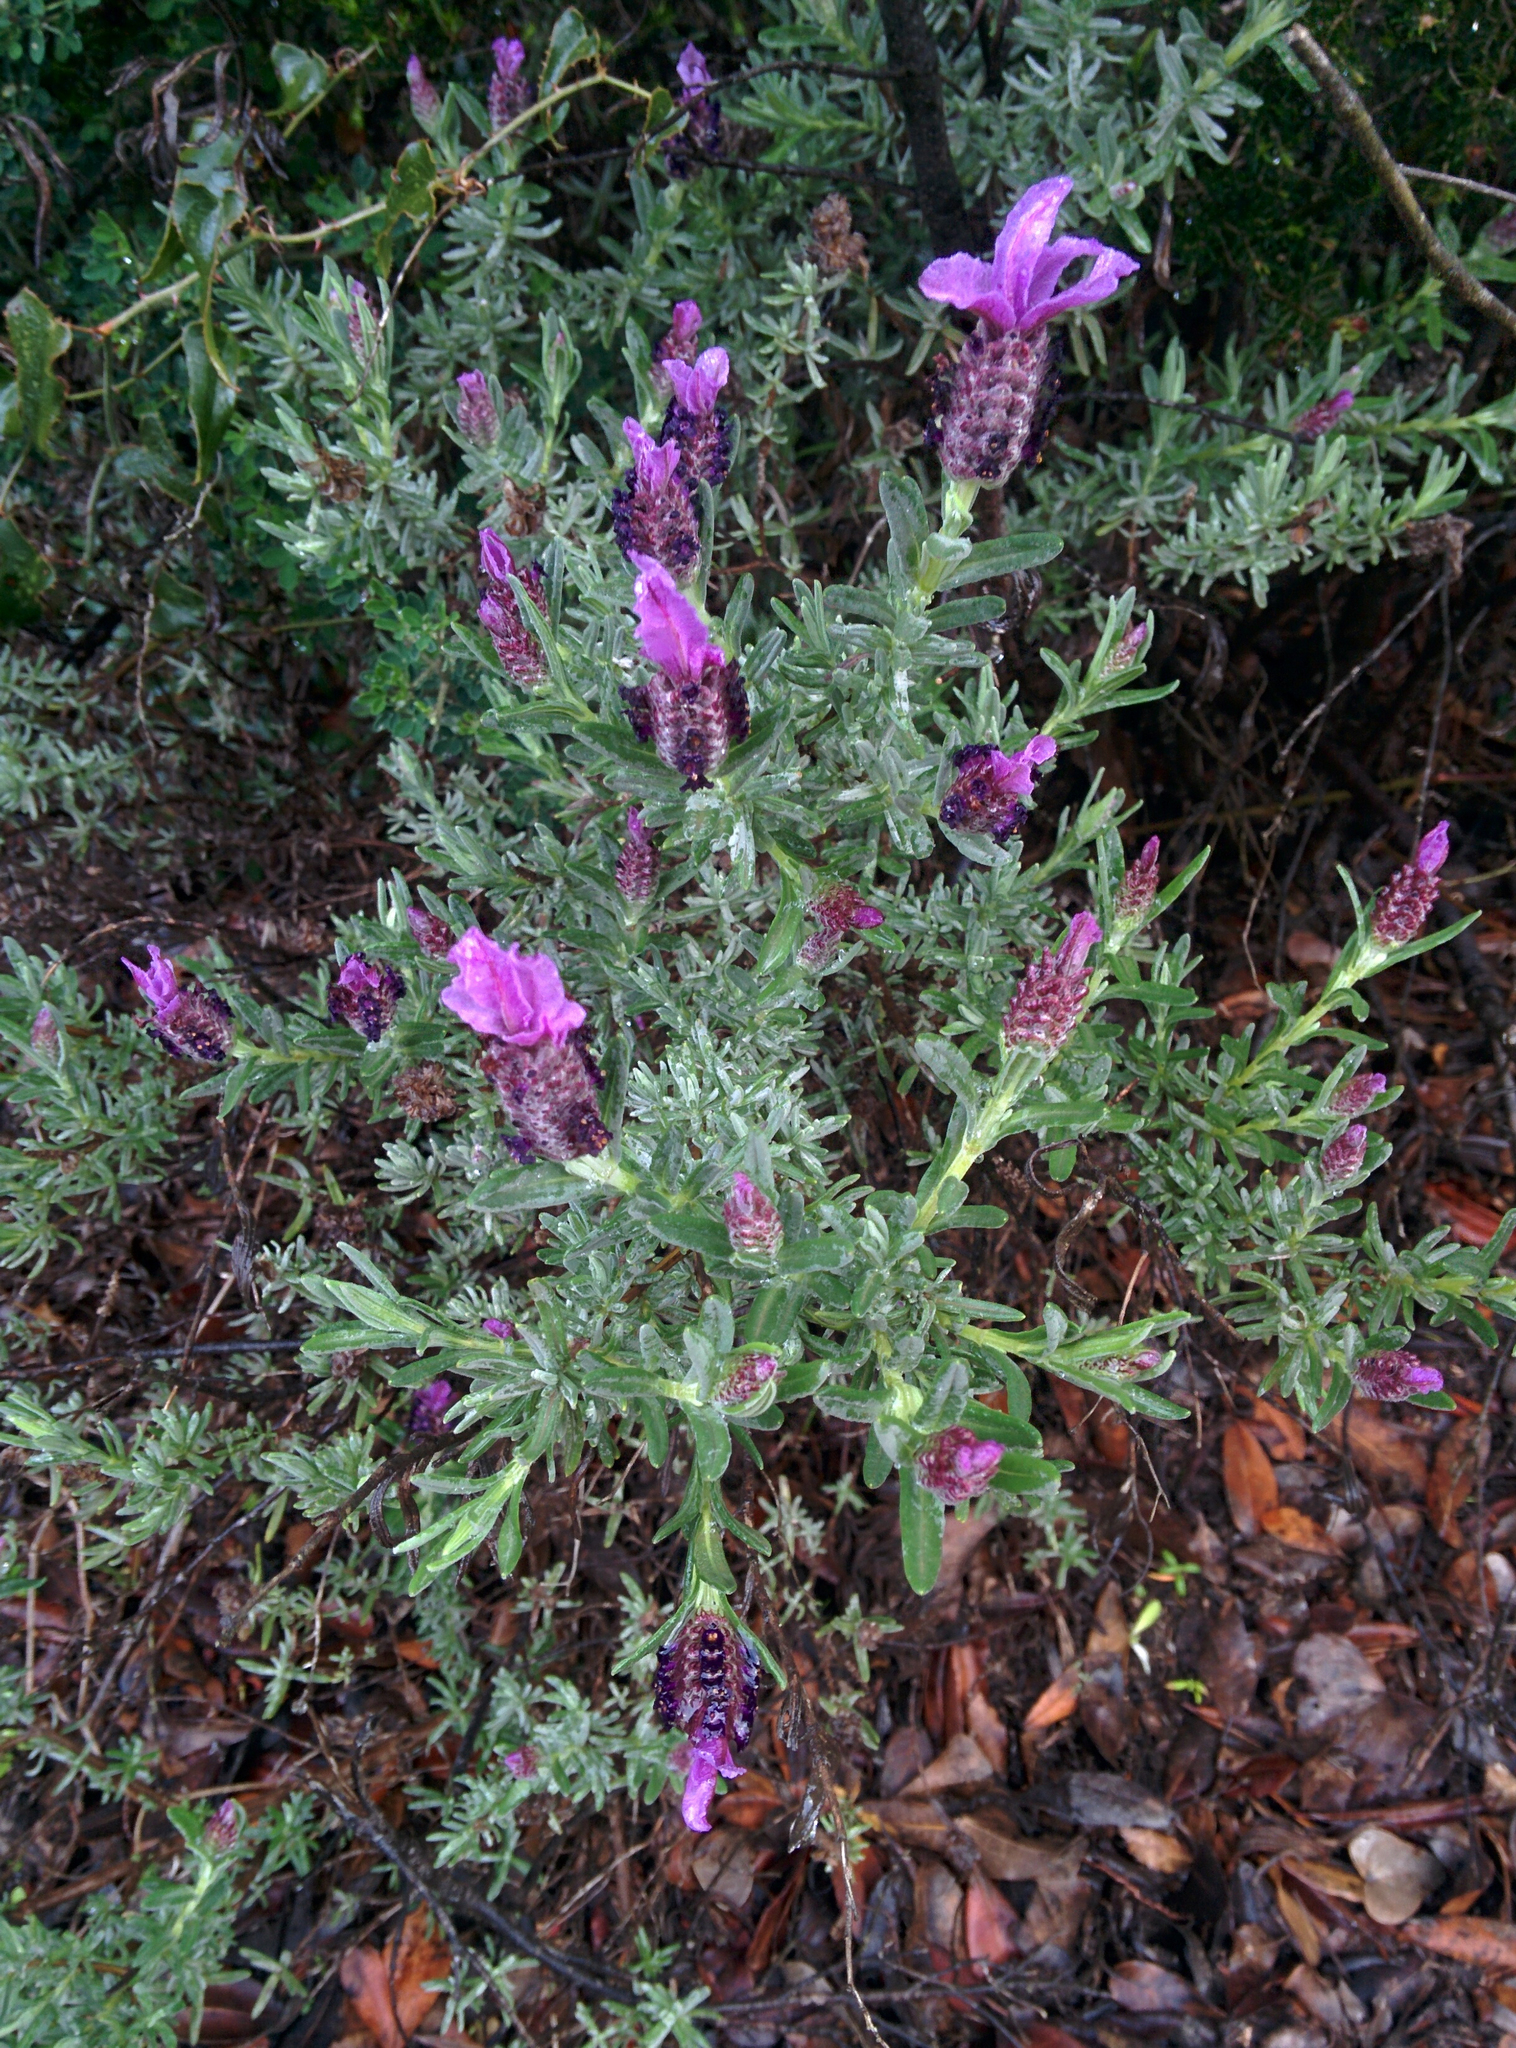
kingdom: Plantae
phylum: Tracheophyta
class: Magnoliopsida
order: Lamiales
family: Lamiaceae
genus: Lavandula
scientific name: Lavandula stoechas
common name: French lavender
